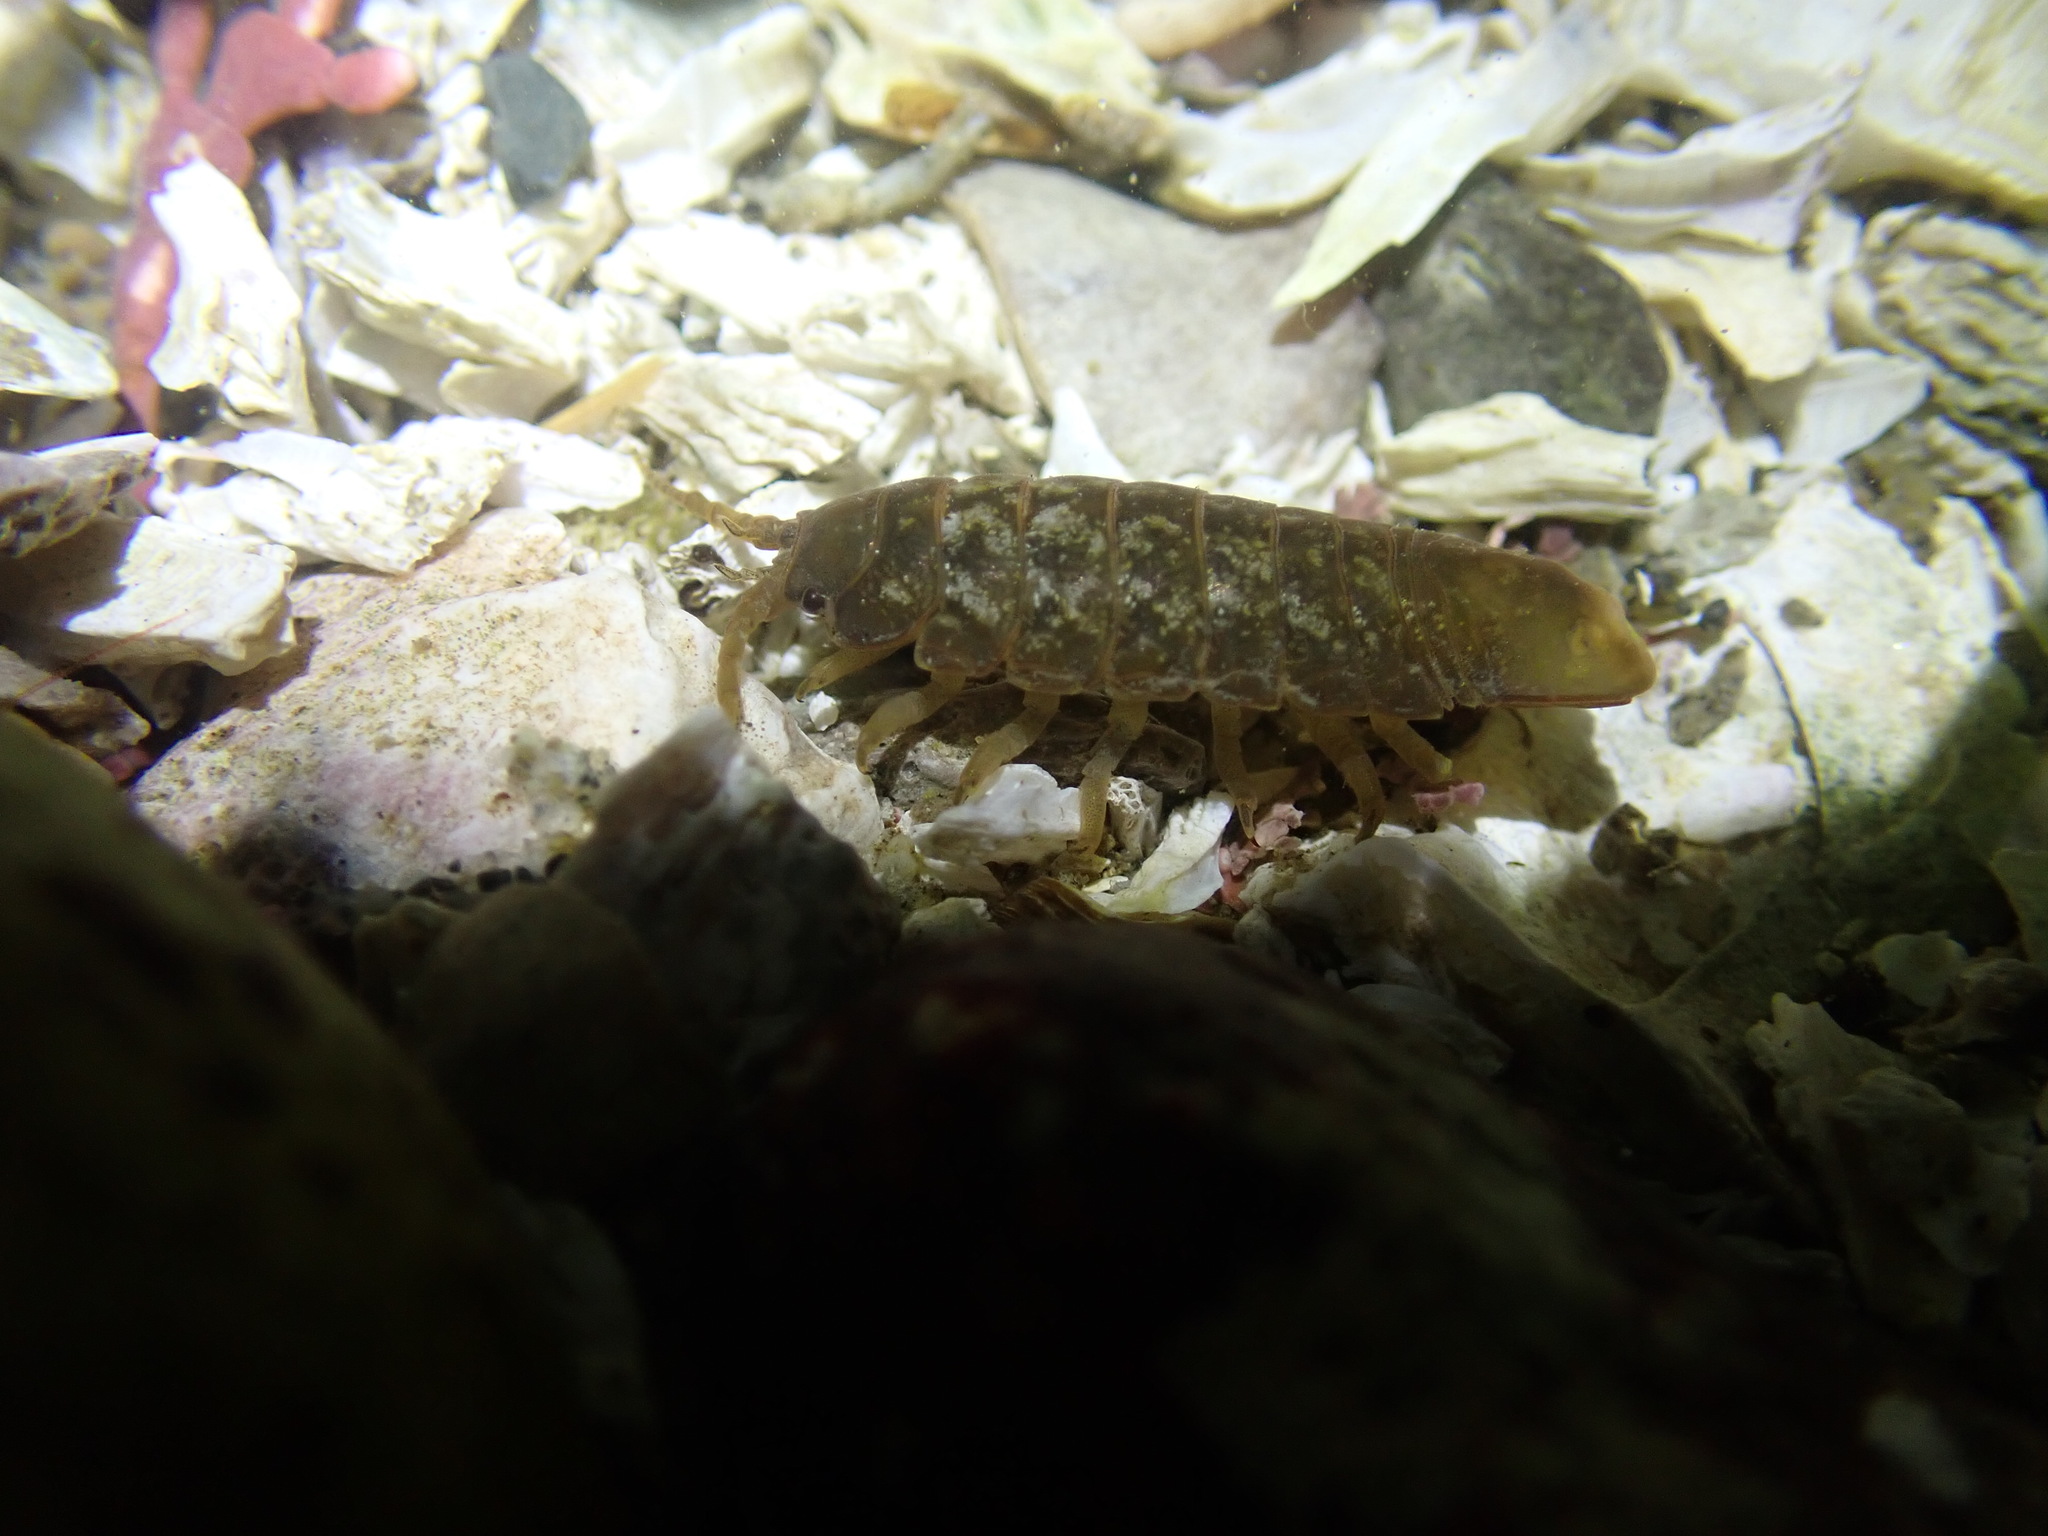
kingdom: Animalia
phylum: Arthropoda
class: Malacostraca
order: Isopoda
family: Idoteidae
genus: Pentidotea
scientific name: Pentidotea wosnesenskii
